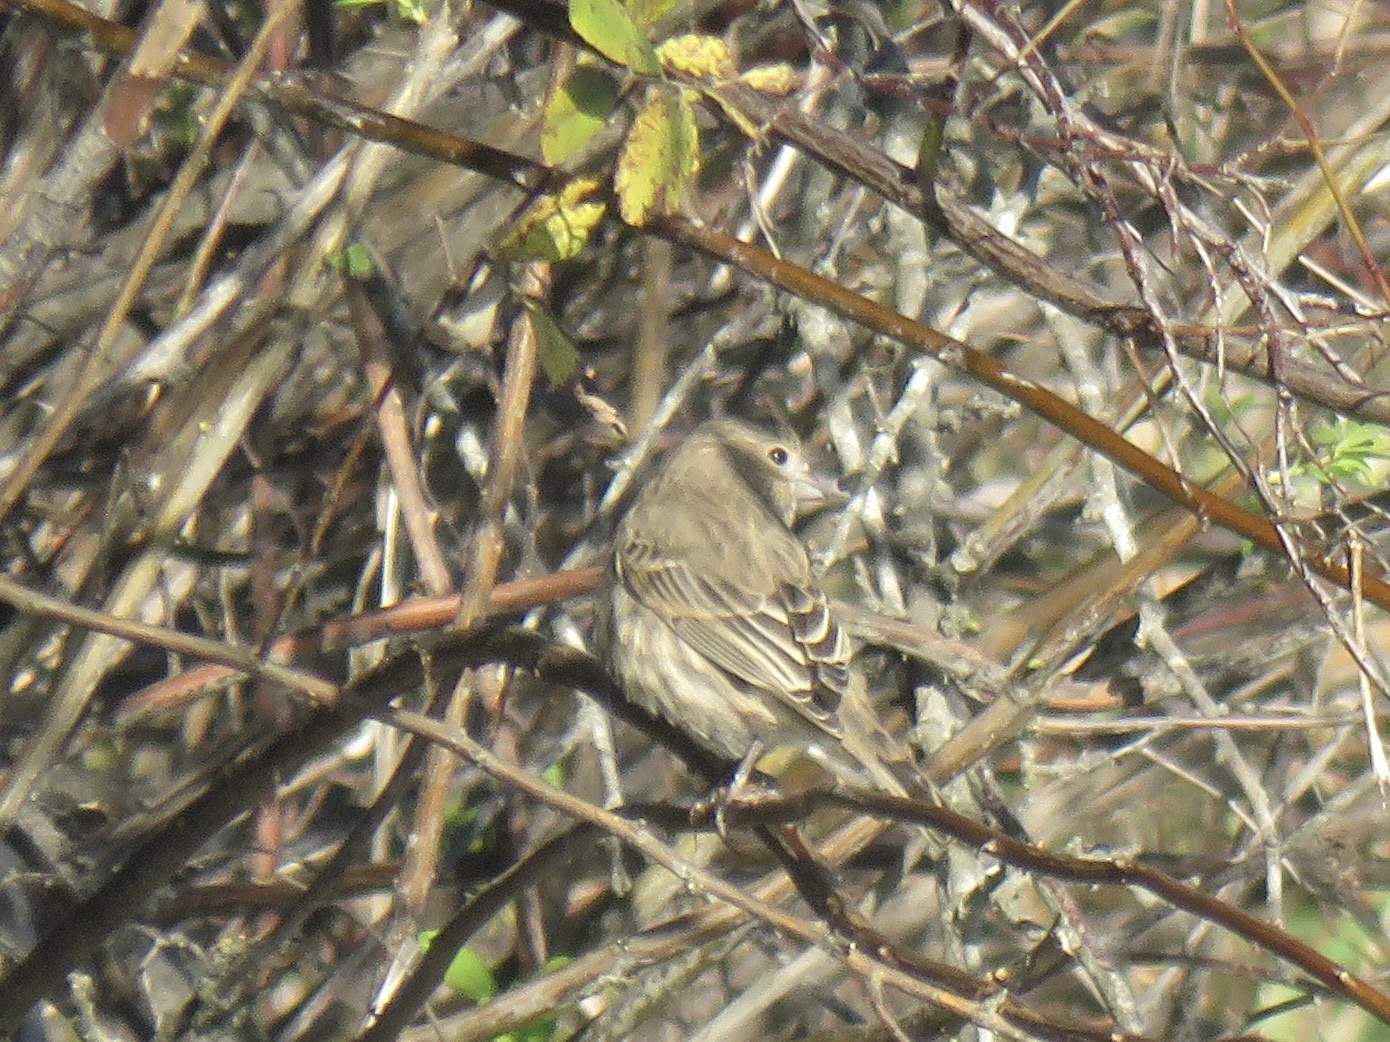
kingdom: Animalia
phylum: Chordata
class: Aves
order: Passeriformes
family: Fringillidae
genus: Haemorhous
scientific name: Haemorhous mexicanus
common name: House finch
